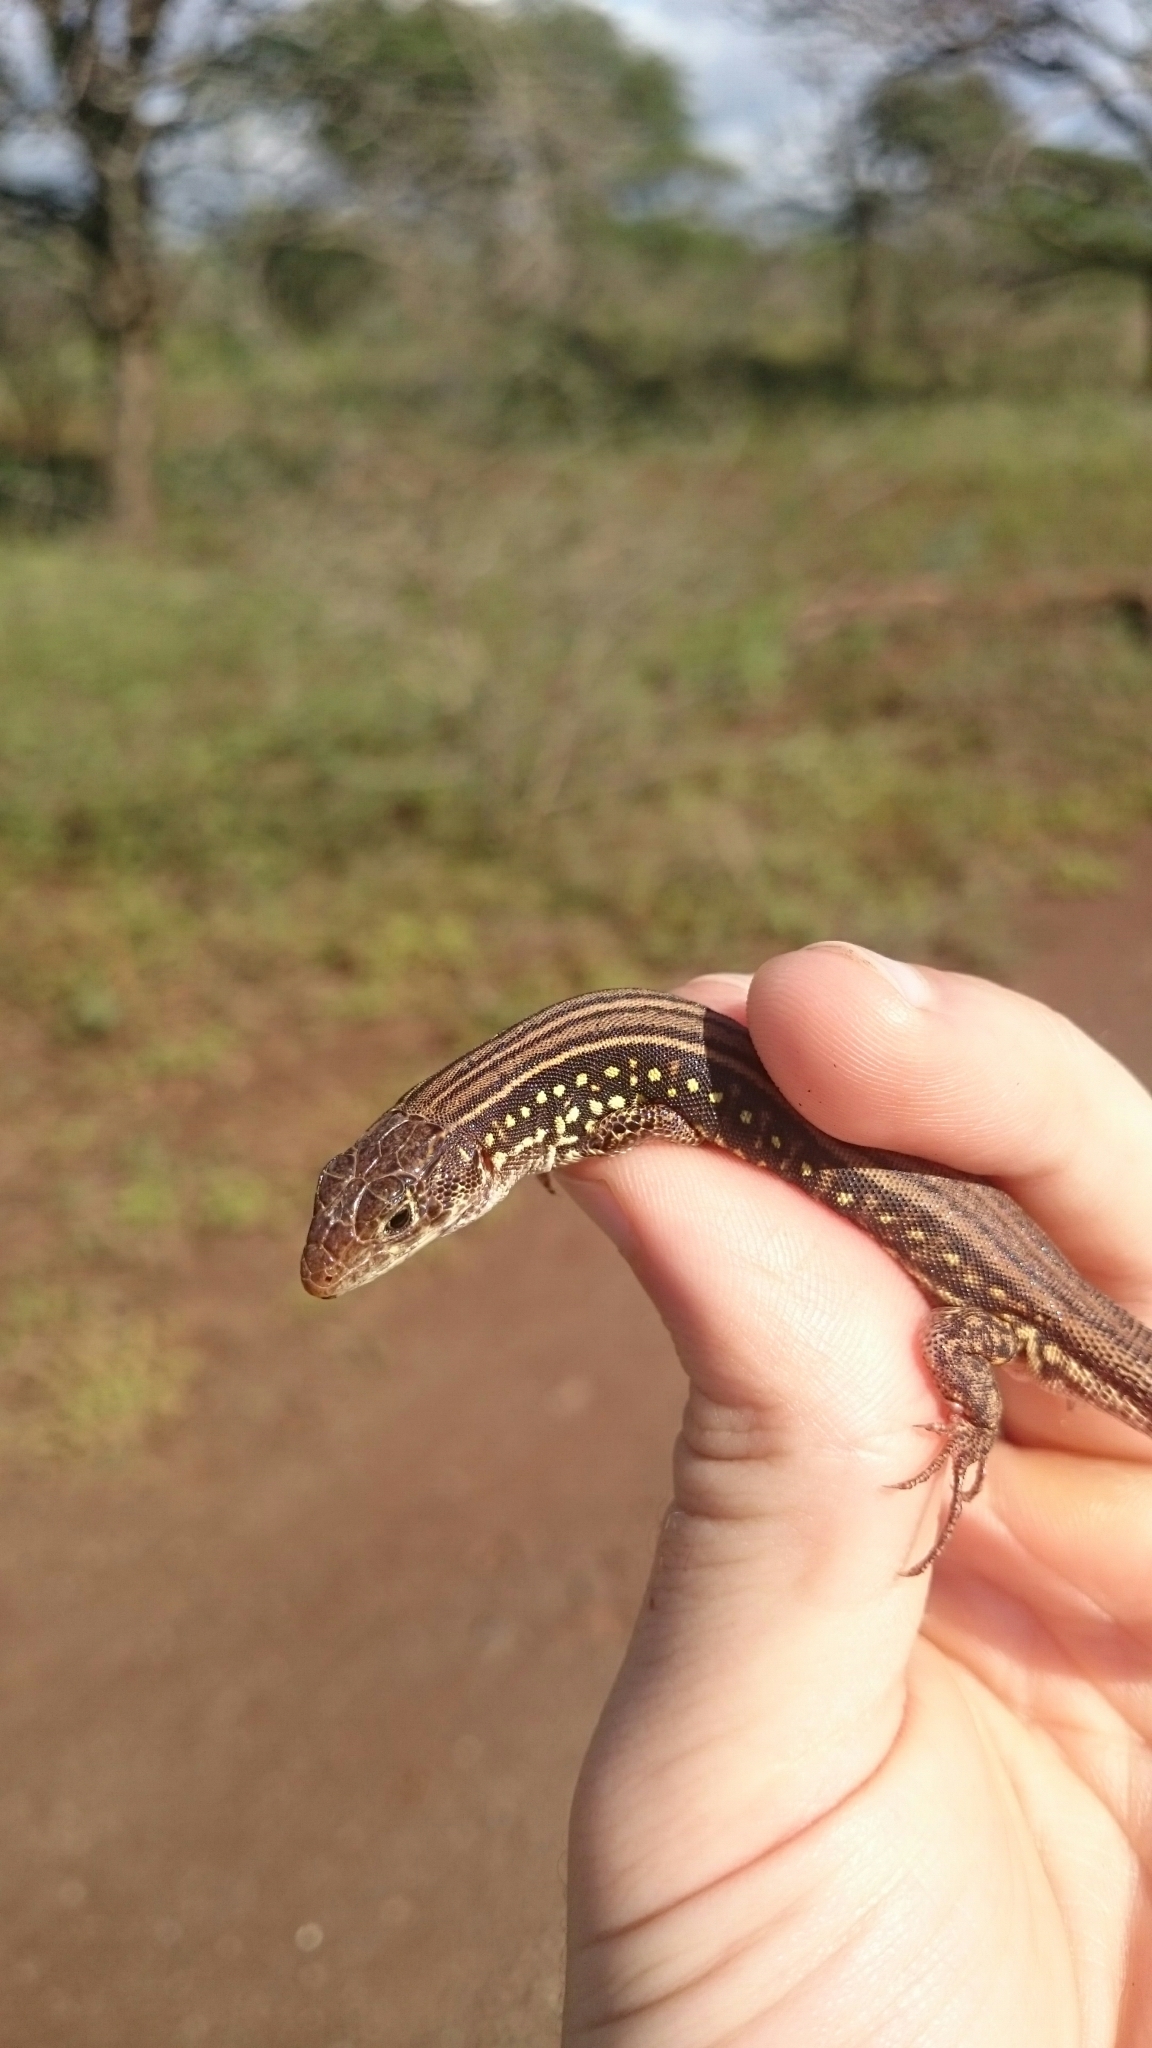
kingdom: Animalia
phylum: Chordata
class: Squamata
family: Lacertidae
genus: Nucras
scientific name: Nucras holubi
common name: Holub's sandveld lizard
